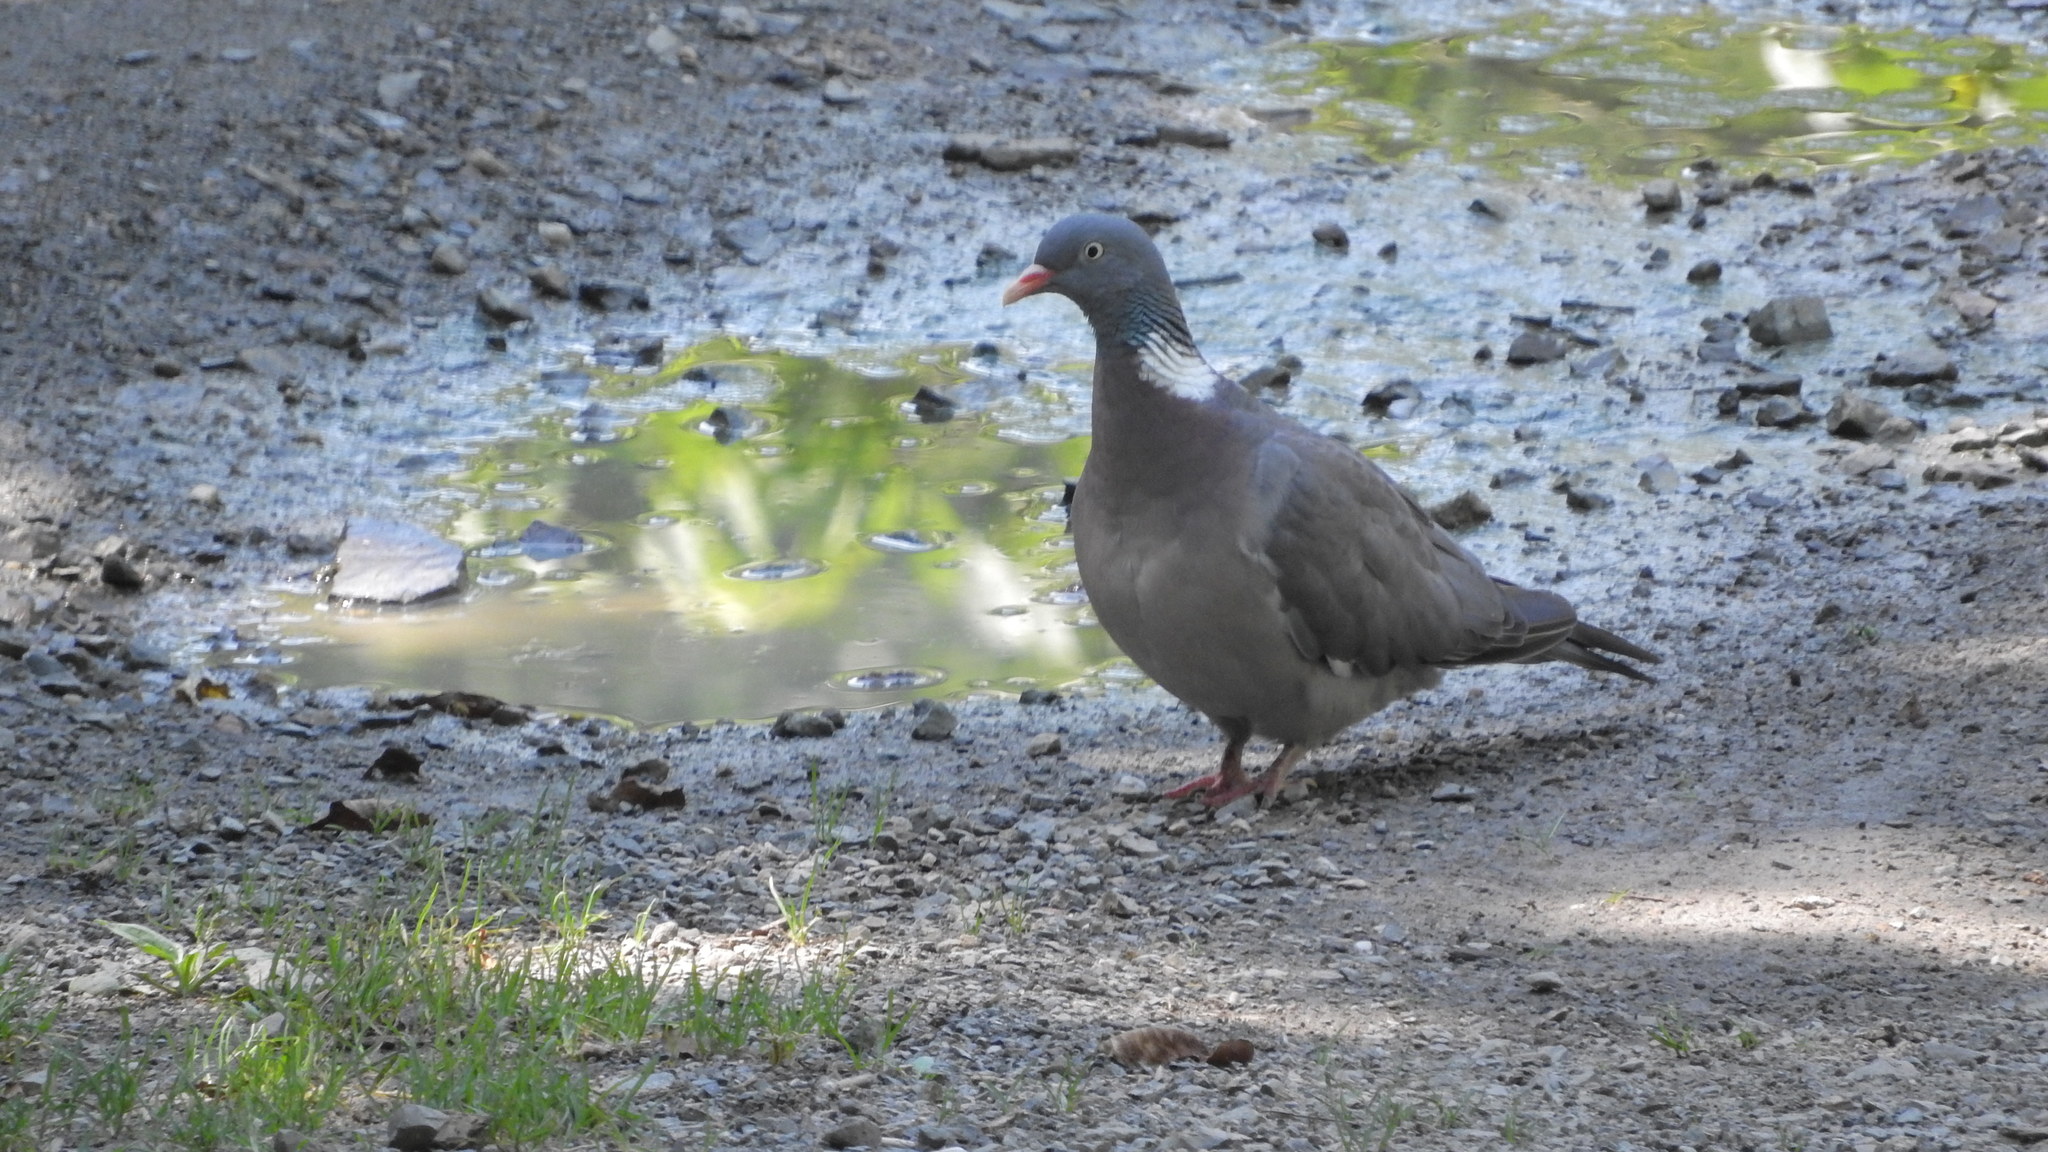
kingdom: Animalia
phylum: Chordata
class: Aves
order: Columbiformes
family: Columbidae
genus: Columba
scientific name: Columba palumbus
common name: Common wood pigeon
